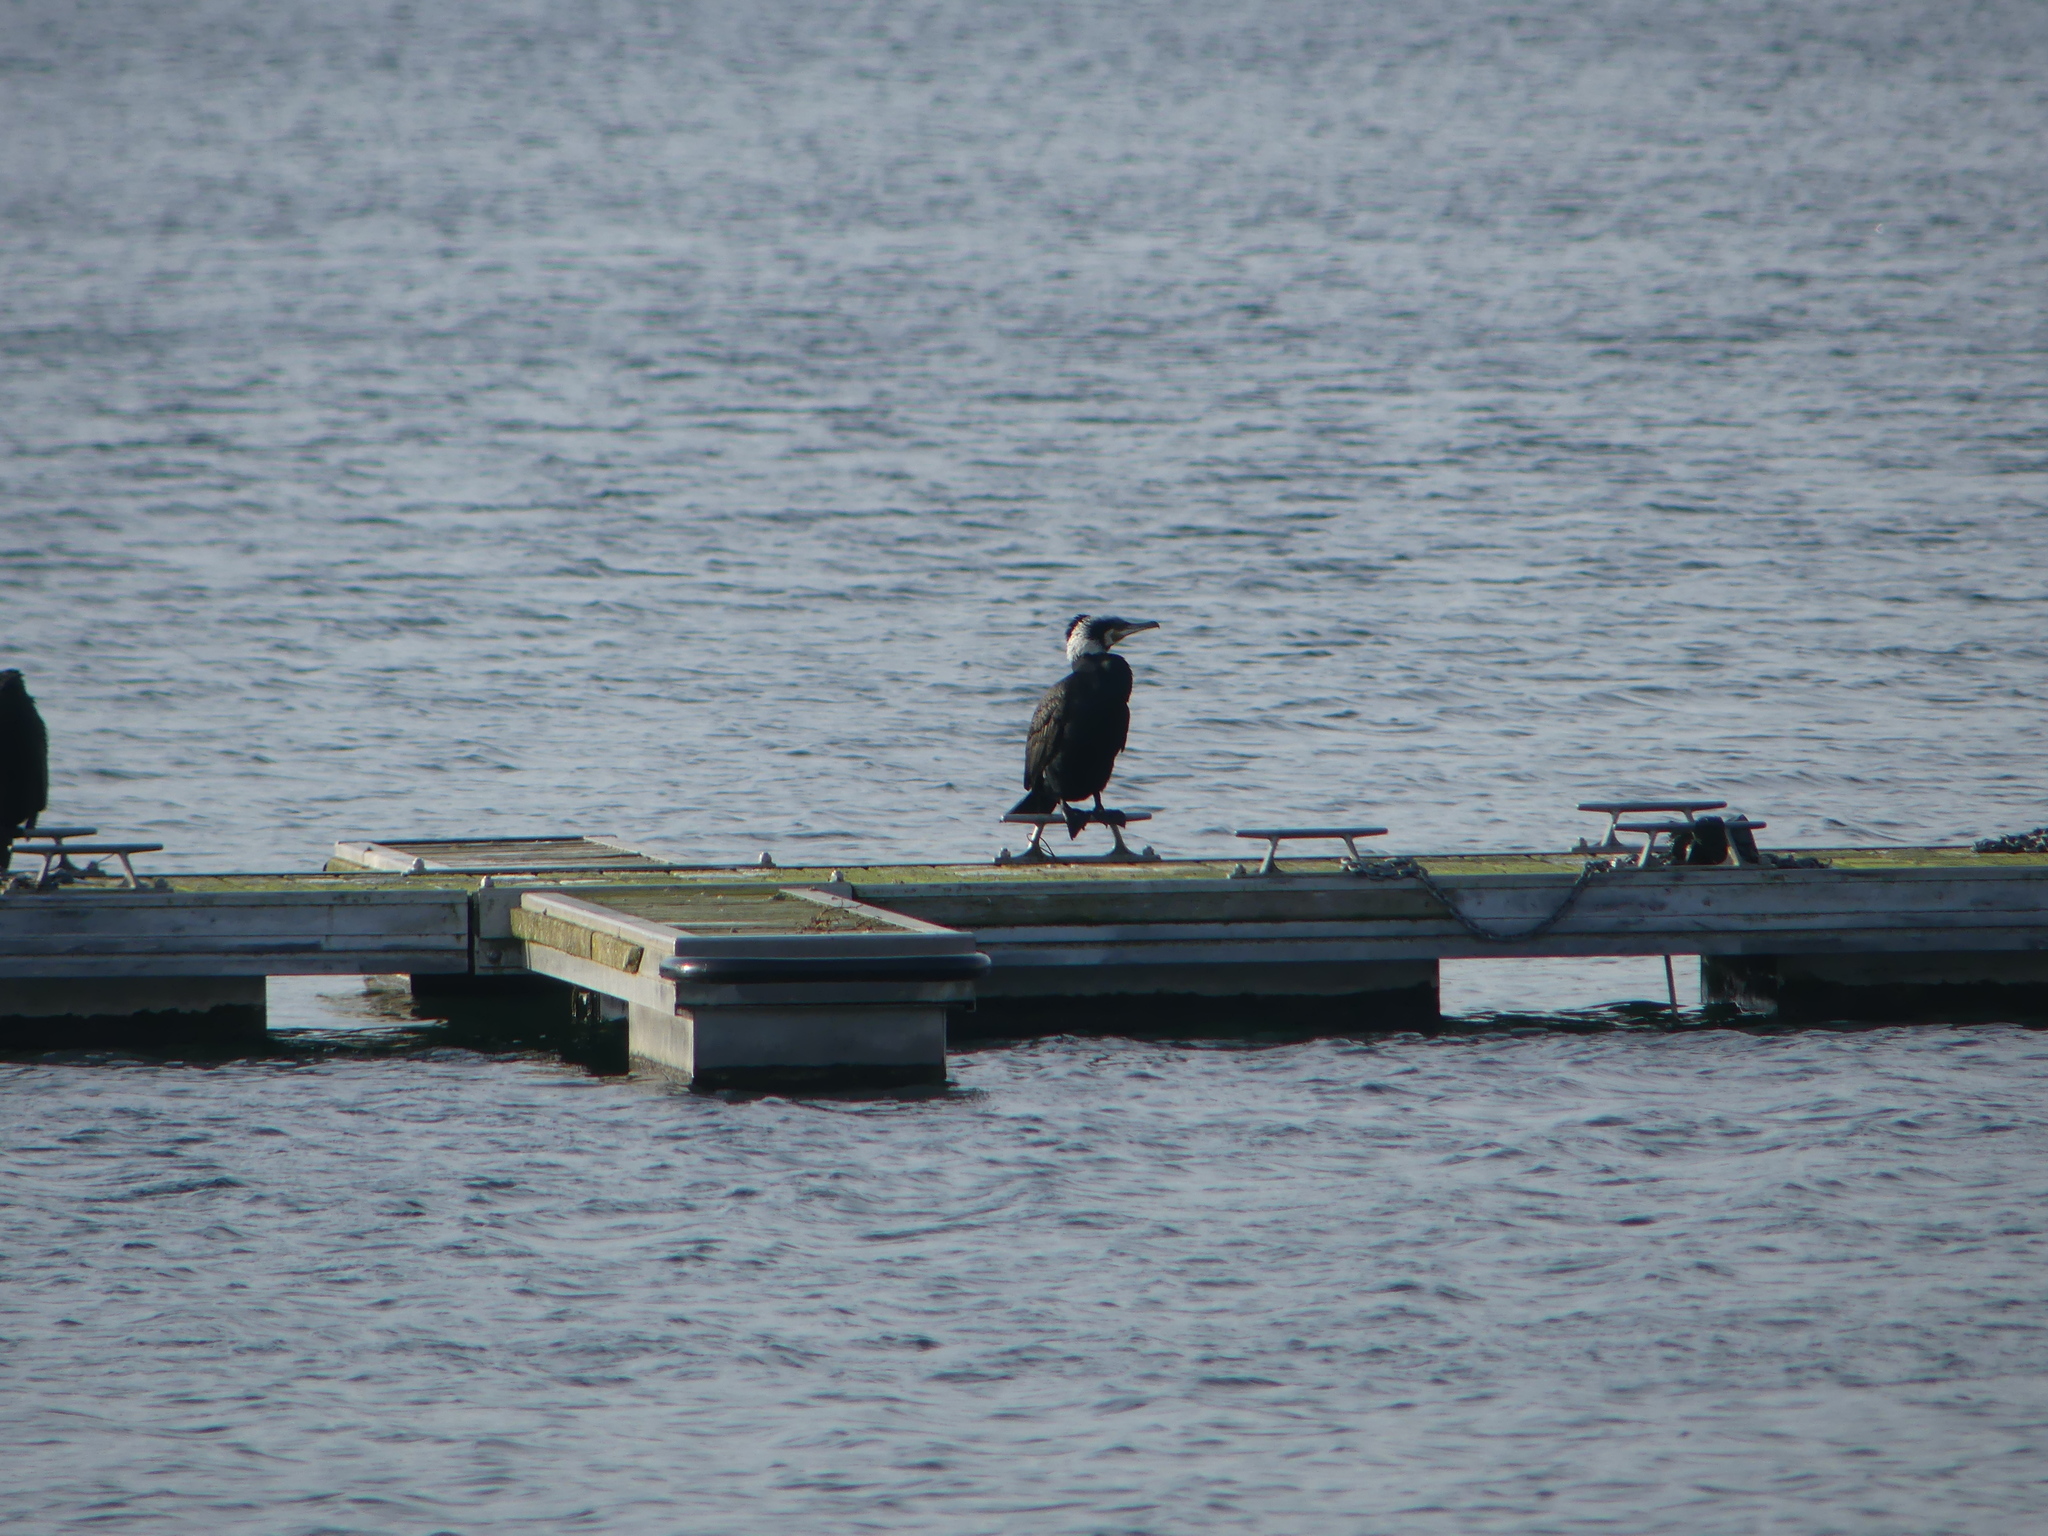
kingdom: Animalia
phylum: Chordata
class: Aves
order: Suliformes
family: Phalacrocoracidae
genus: Phalacrocorax
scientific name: Phalacrocorax carbo
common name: Great cormorant
